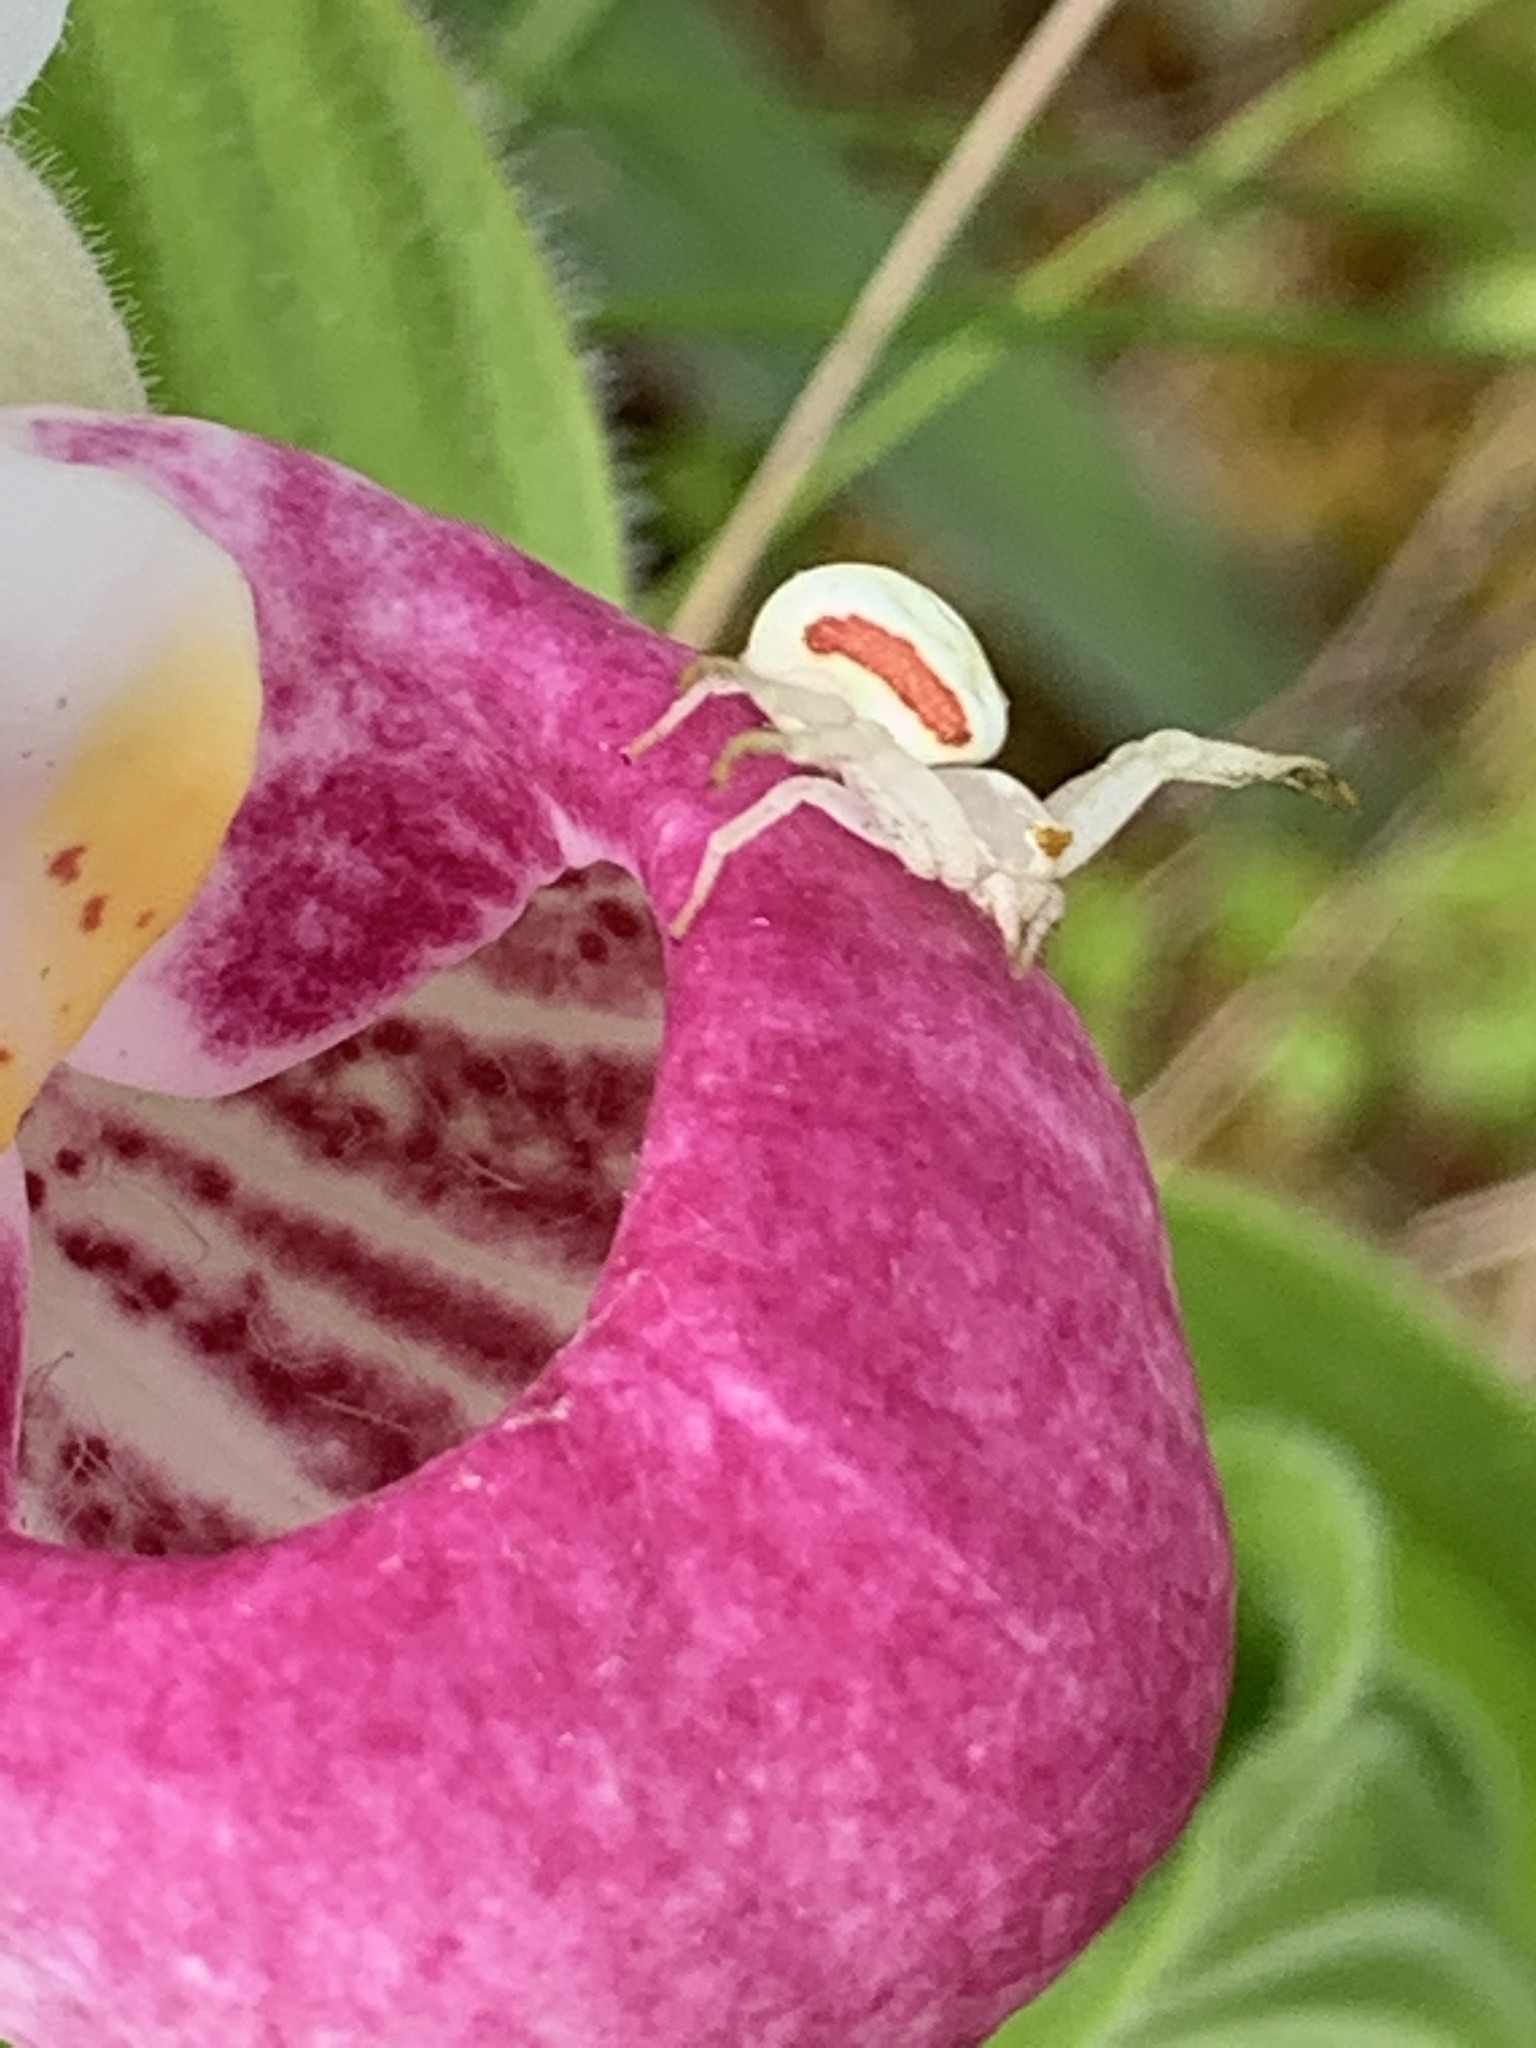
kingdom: Animalia
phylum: Arthropoda
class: Arachnida
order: Araneae
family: Thomisidae
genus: Misumena
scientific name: Misumena vatia
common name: Goldenrod crab spider
